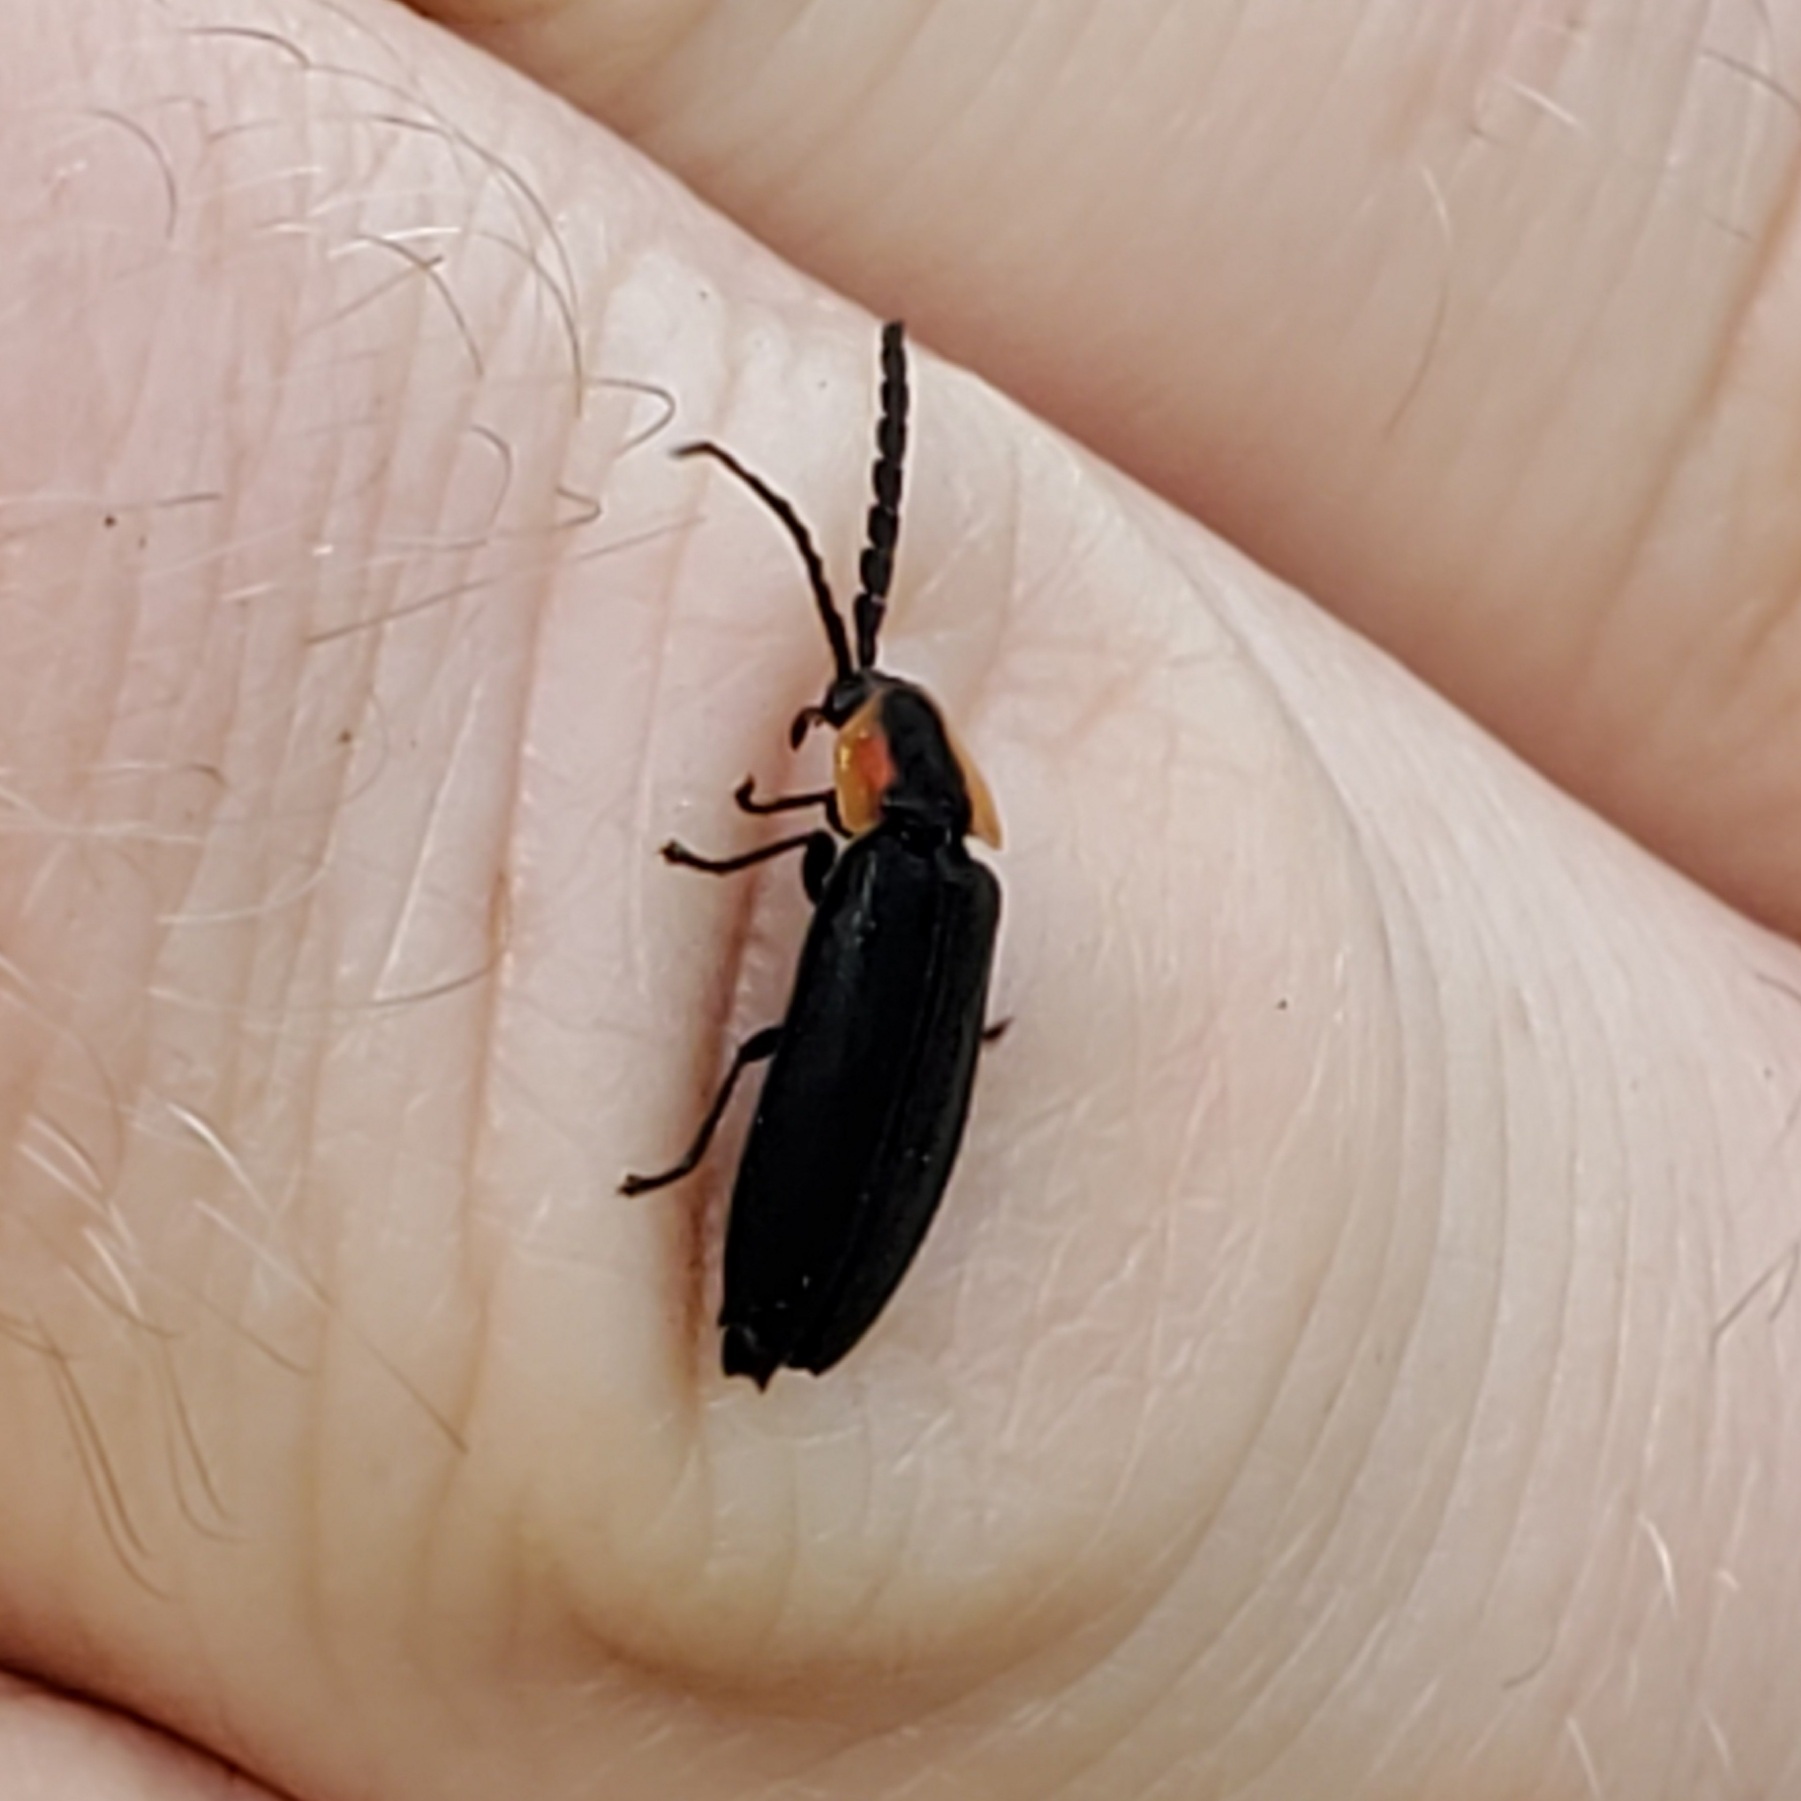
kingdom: Animalia
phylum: Arthropoda
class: Insecta
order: Coleoptera
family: Lampyridae
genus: Lucidota
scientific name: Lucidota atra
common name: Black firefly
